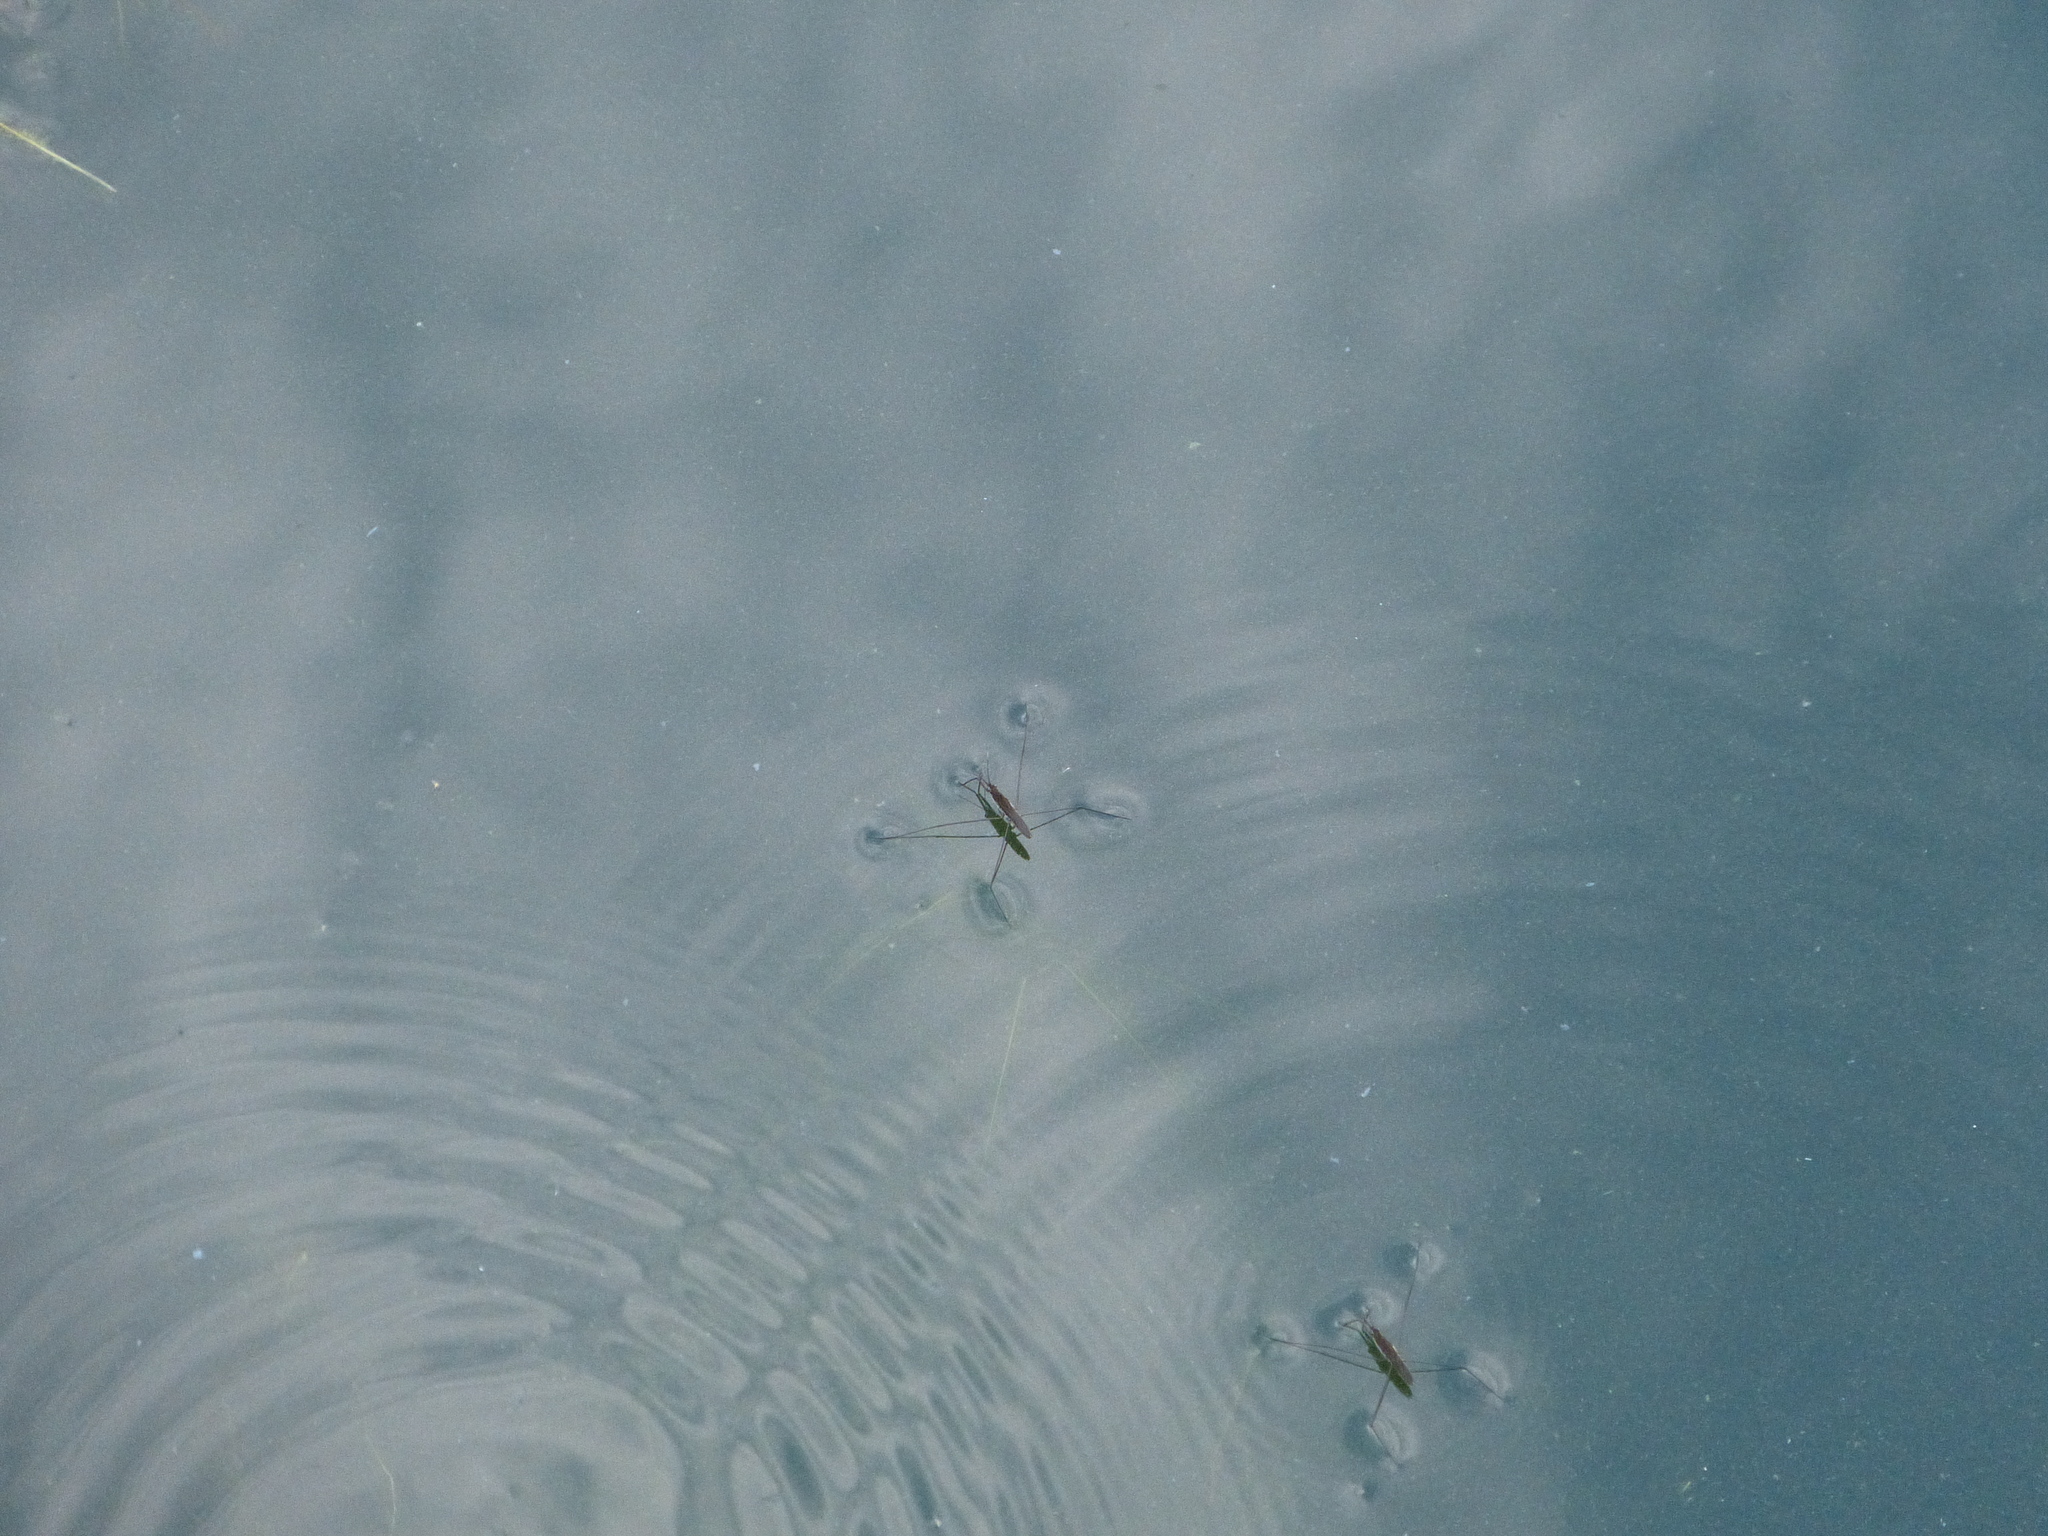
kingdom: Animalia
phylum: Arthropoda
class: Insecta
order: Hemiptera
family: Gerridae
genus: Aquarius
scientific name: Aquarius paludum
